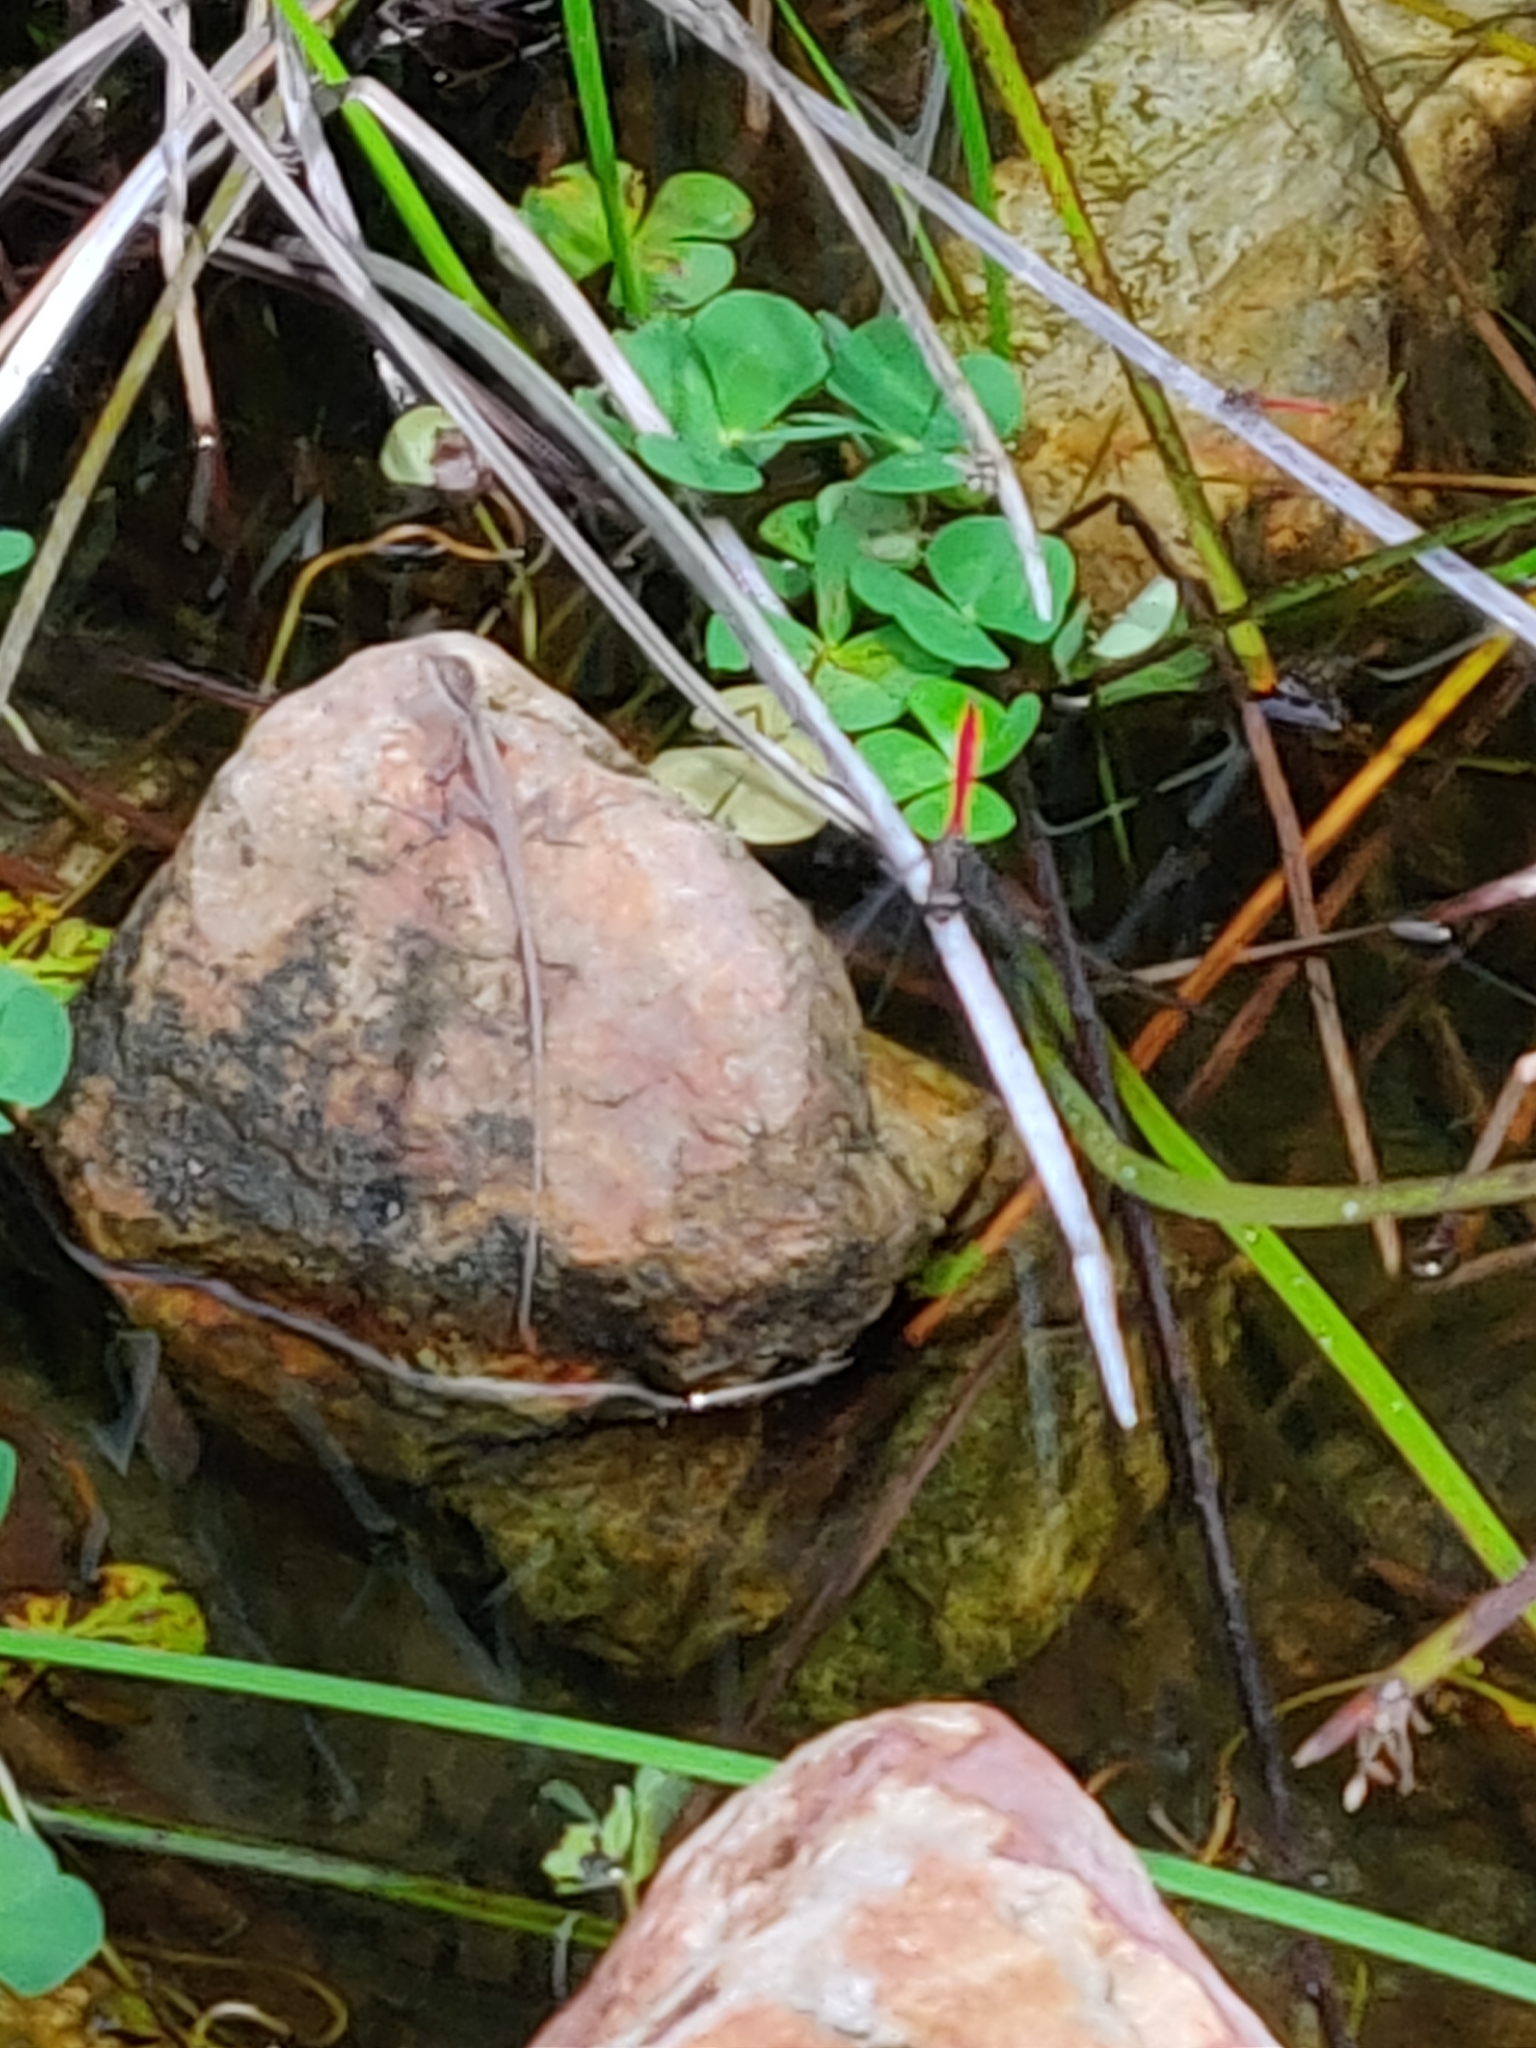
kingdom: Animalia
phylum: Arthropoda
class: Insecta
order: Odonata
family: Libellulidae
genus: Orthetrum
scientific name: Orthetrum villosovittatum
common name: Firery skimmer
